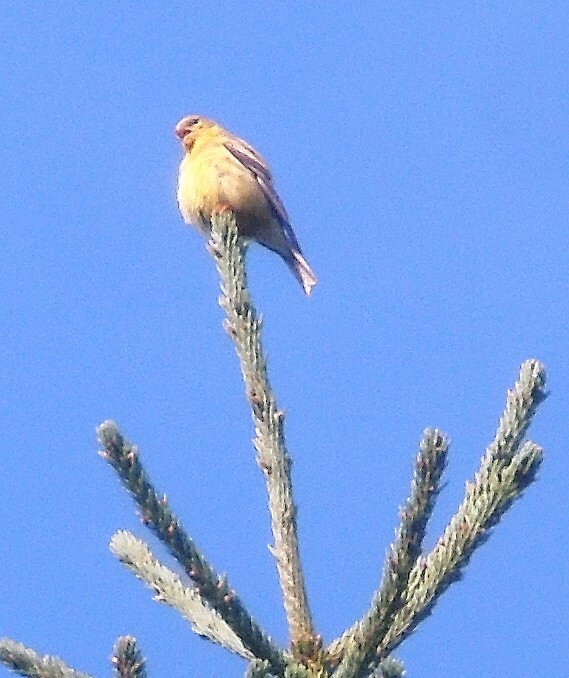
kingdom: Animalia
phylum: Chordata
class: Aves
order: Passeriformes
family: Fringillidae
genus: Spinus
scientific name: Spinus tristis
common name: American goldfinch
